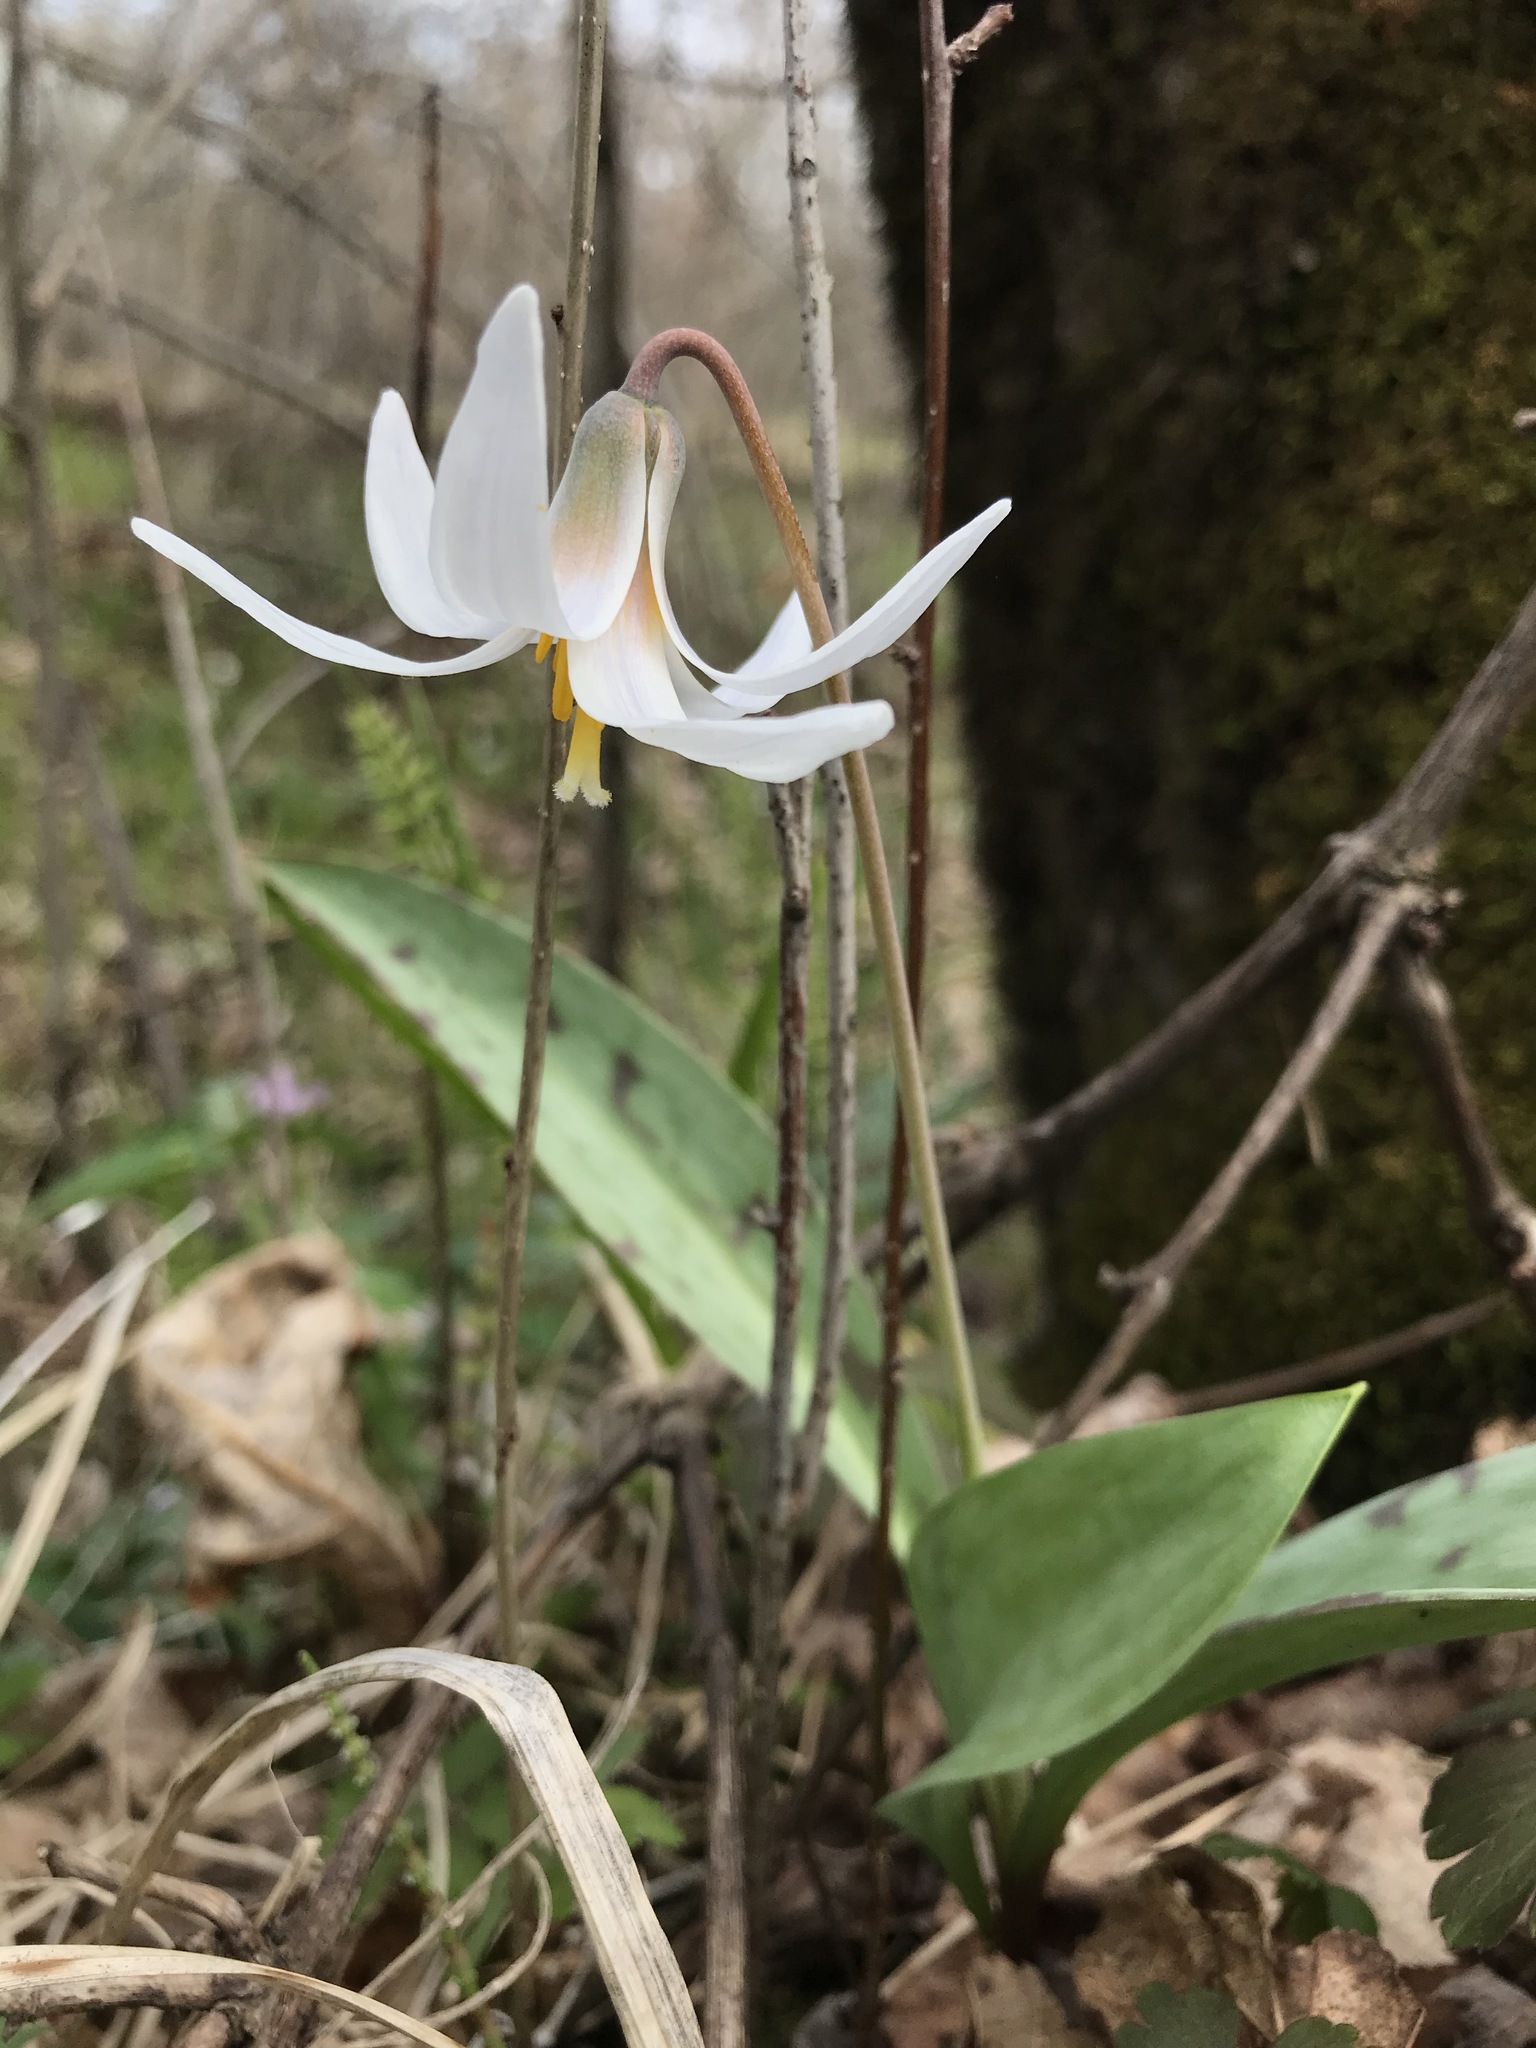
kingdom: Plantae
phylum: Tracheophyta
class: Liliopsida
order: Liliales
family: Liliaceae
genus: Erythronium
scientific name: Erythronium albidum
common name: White trout-lily
